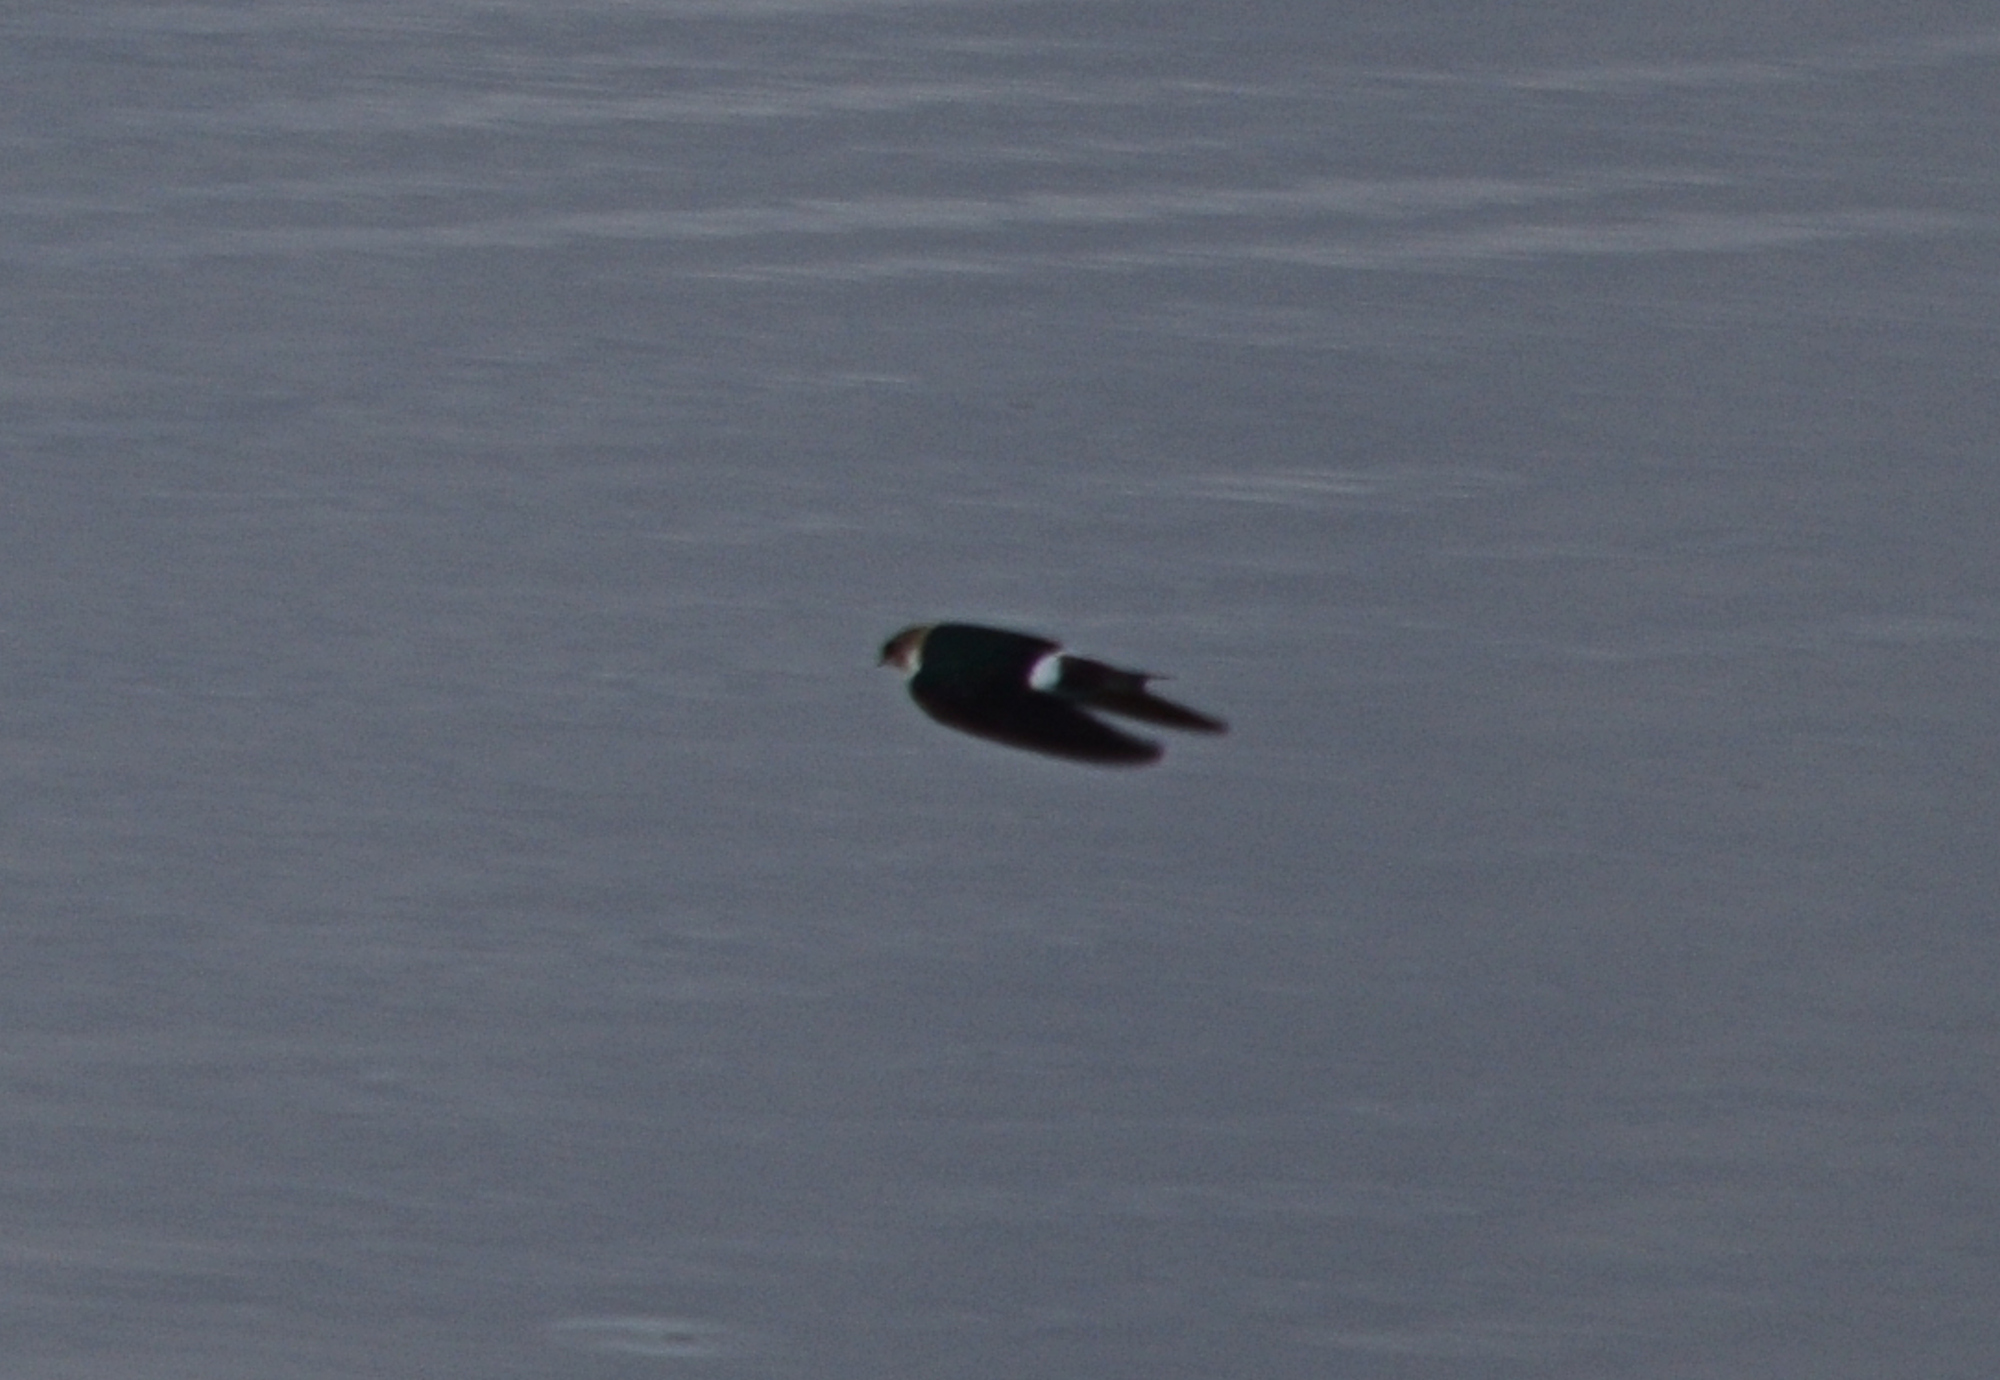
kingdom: Animalia
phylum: Chordata
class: Aves
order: Passeriformes
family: Hirundinidae
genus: Tachycineta
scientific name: Tachycineta thalassina
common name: Violet-green swallow
